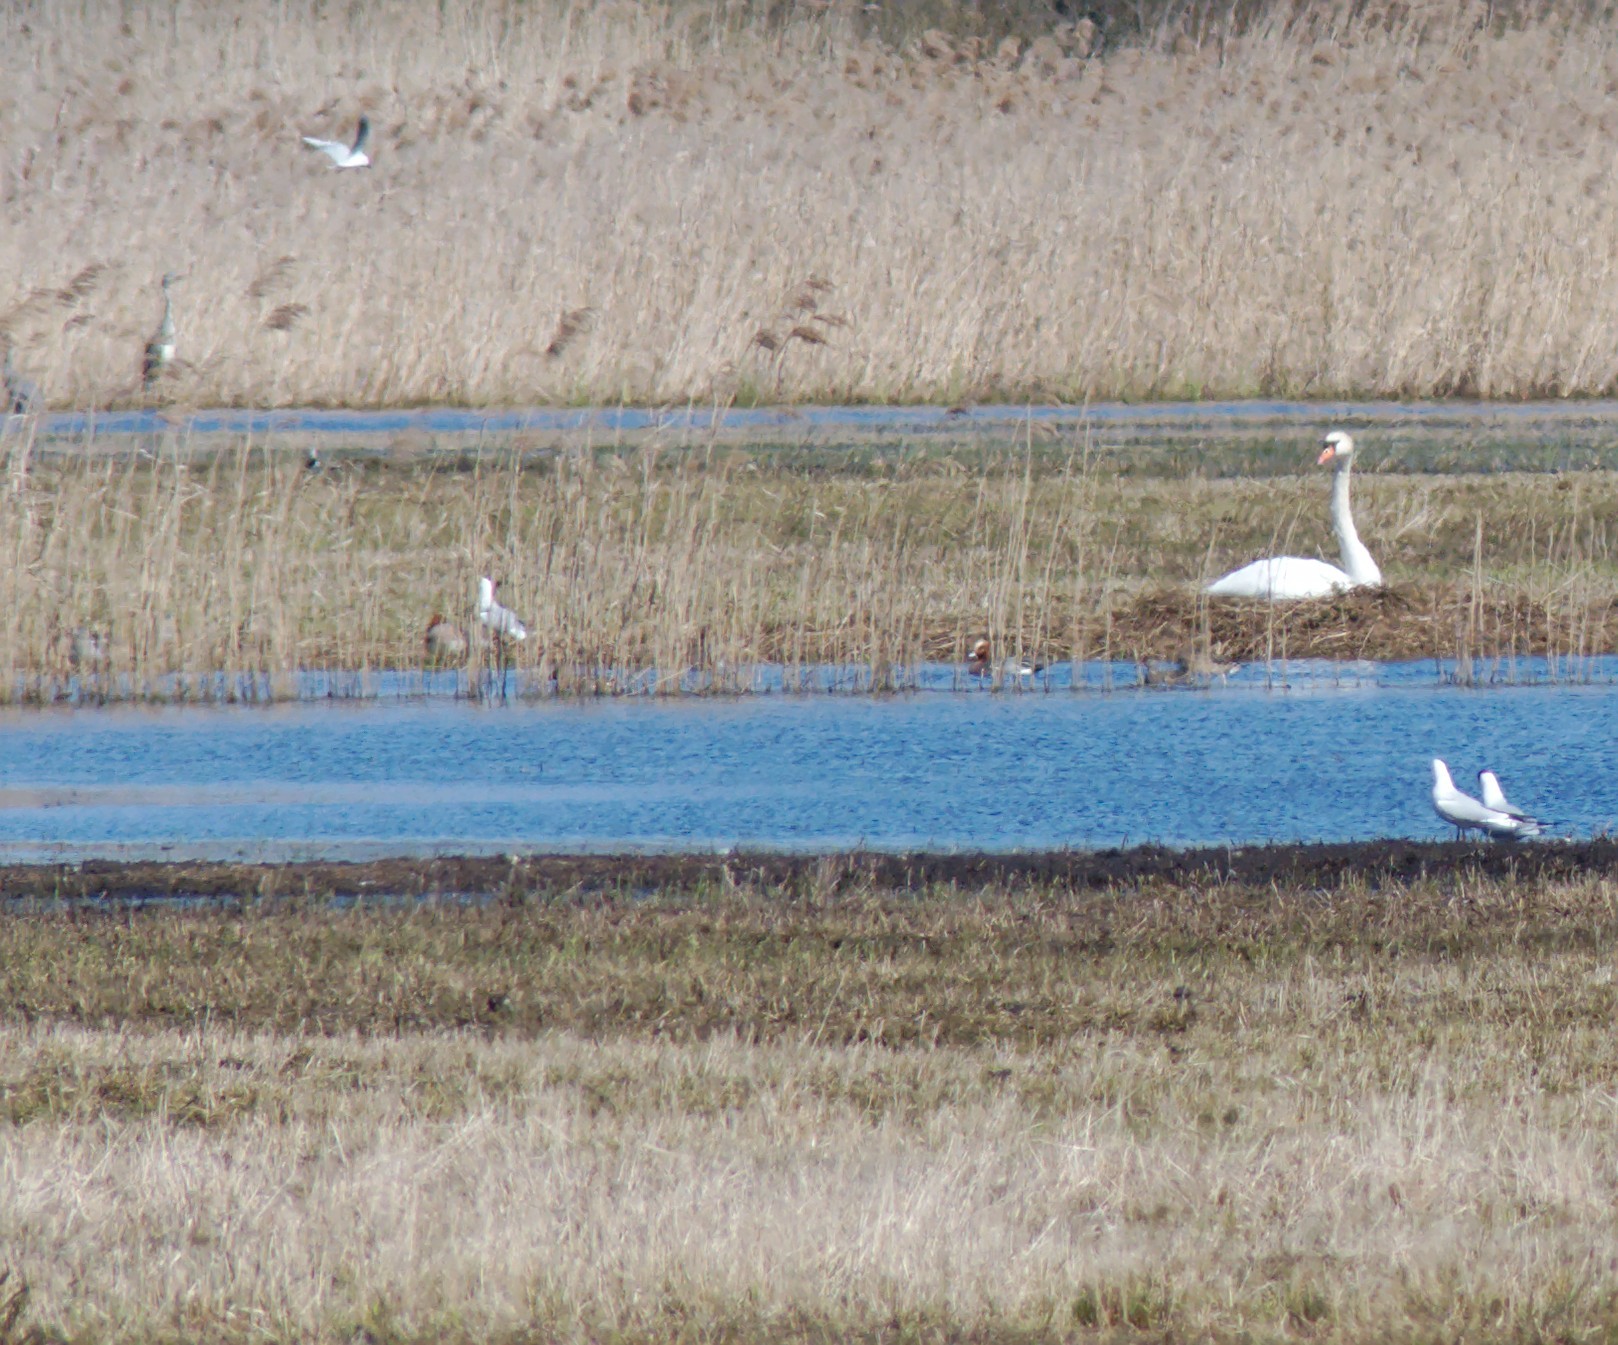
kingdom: Animalia
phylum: Chordata
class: Aves
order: Anseriformes
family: Anatidae
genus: Mareca
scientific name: Mareca penelope
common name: Eurasian wigeon
